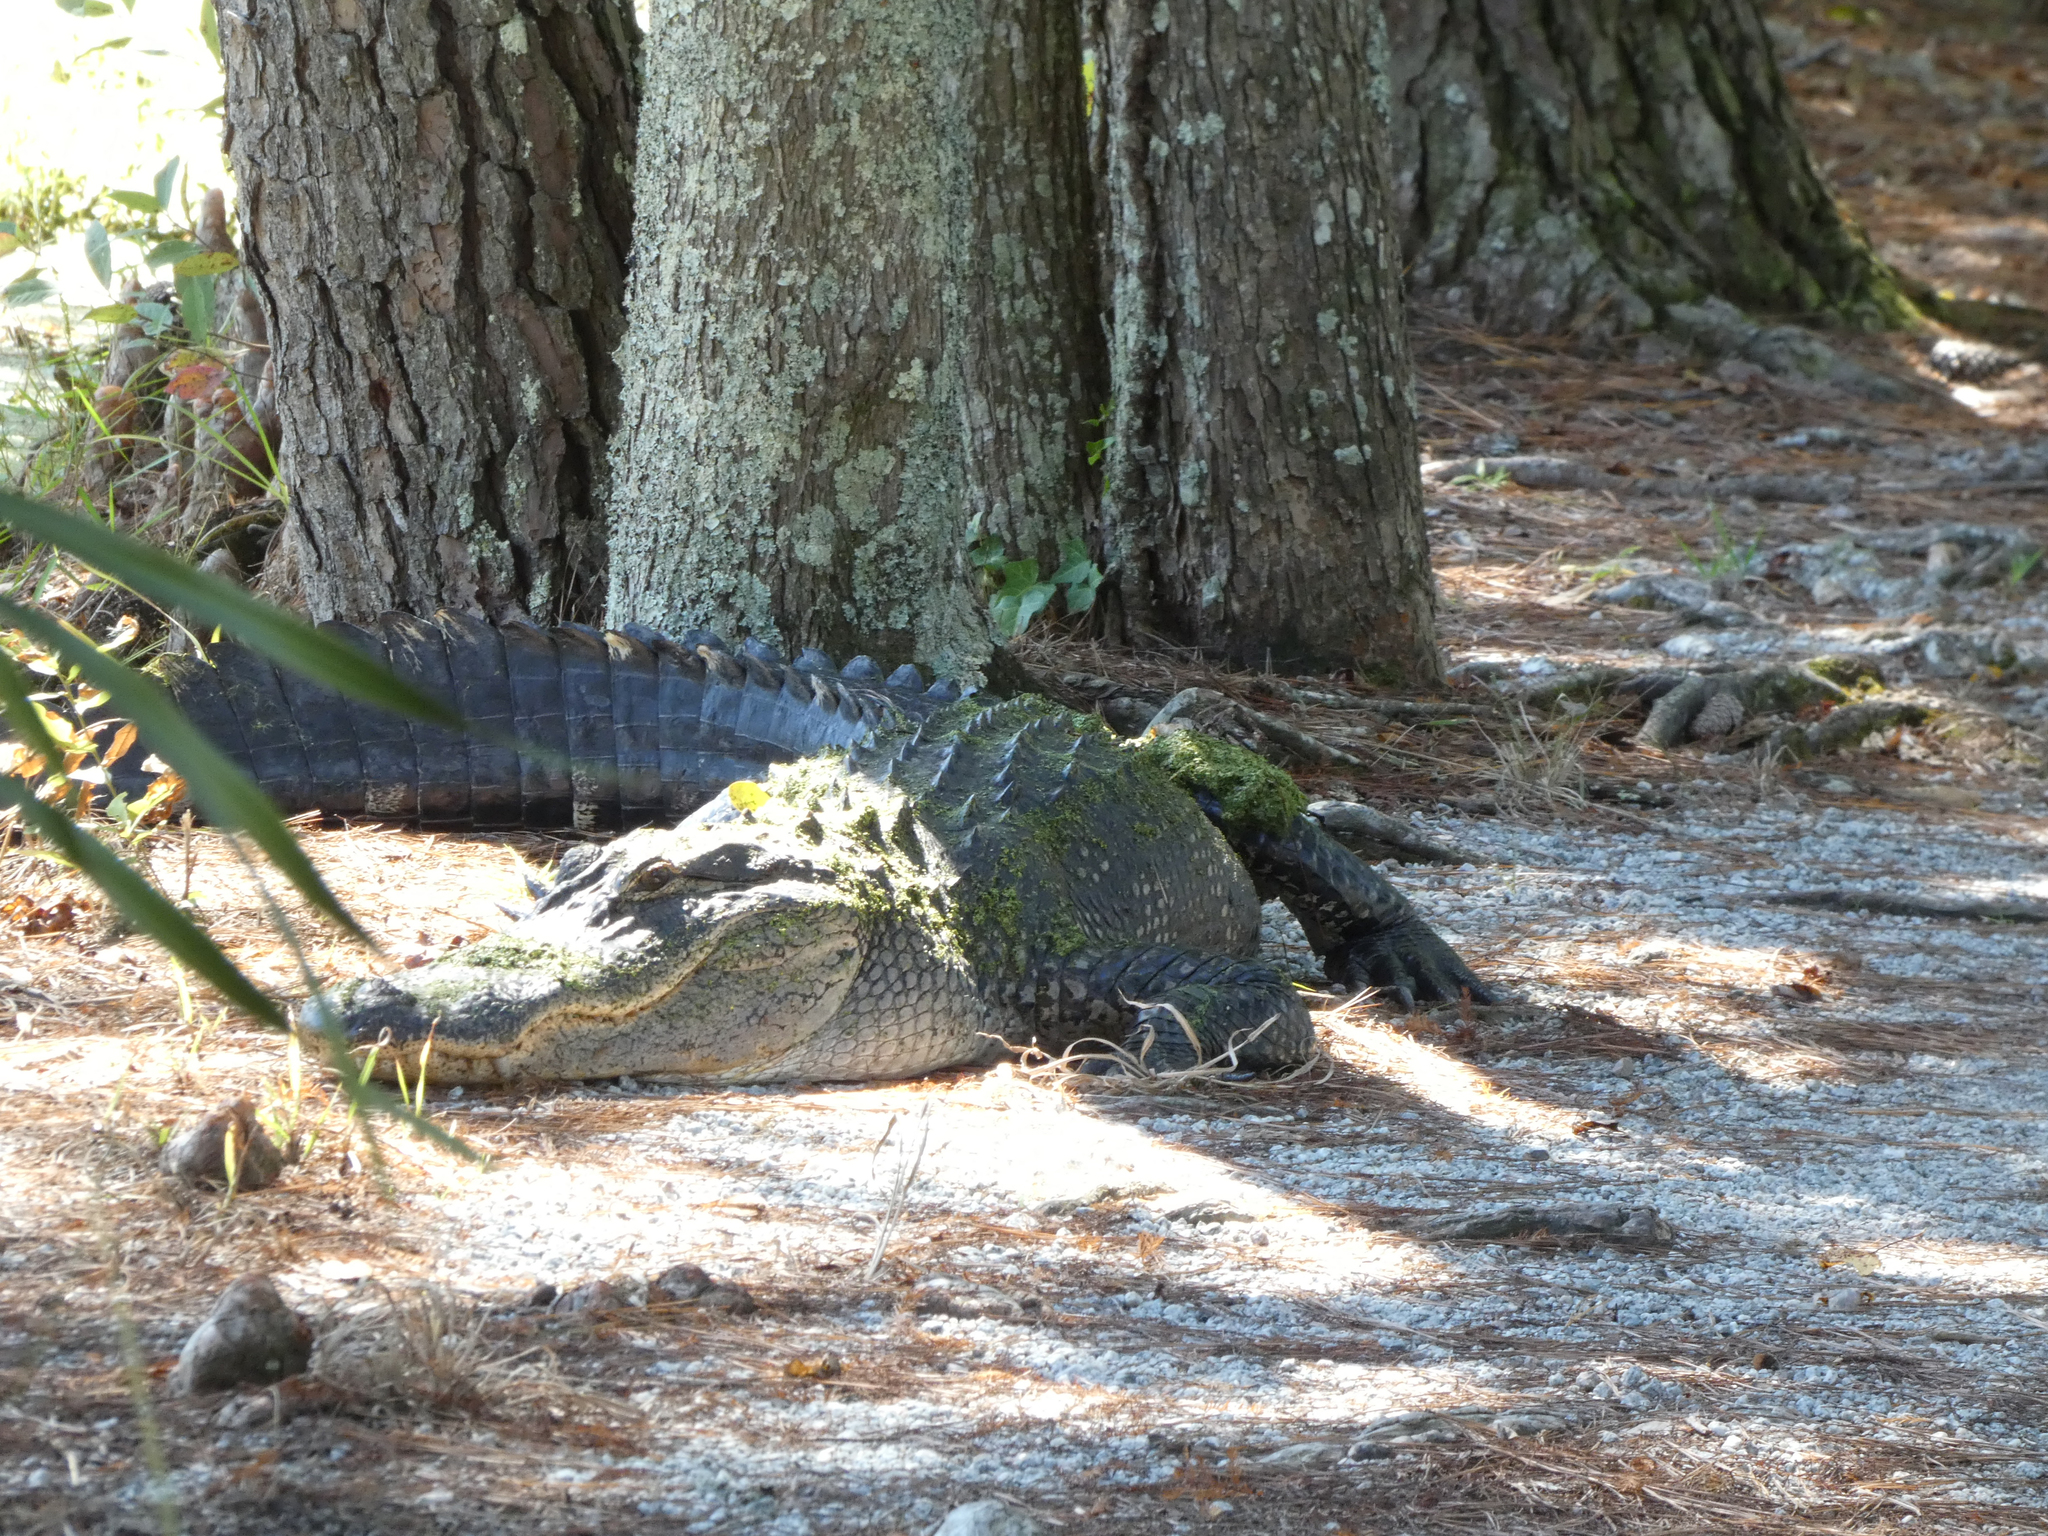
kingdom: Animalia
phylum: Chordata
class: Crocodylia
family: Alligatoridae
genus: Alligator
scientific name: Alligator mississippiensis
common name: American alligator
